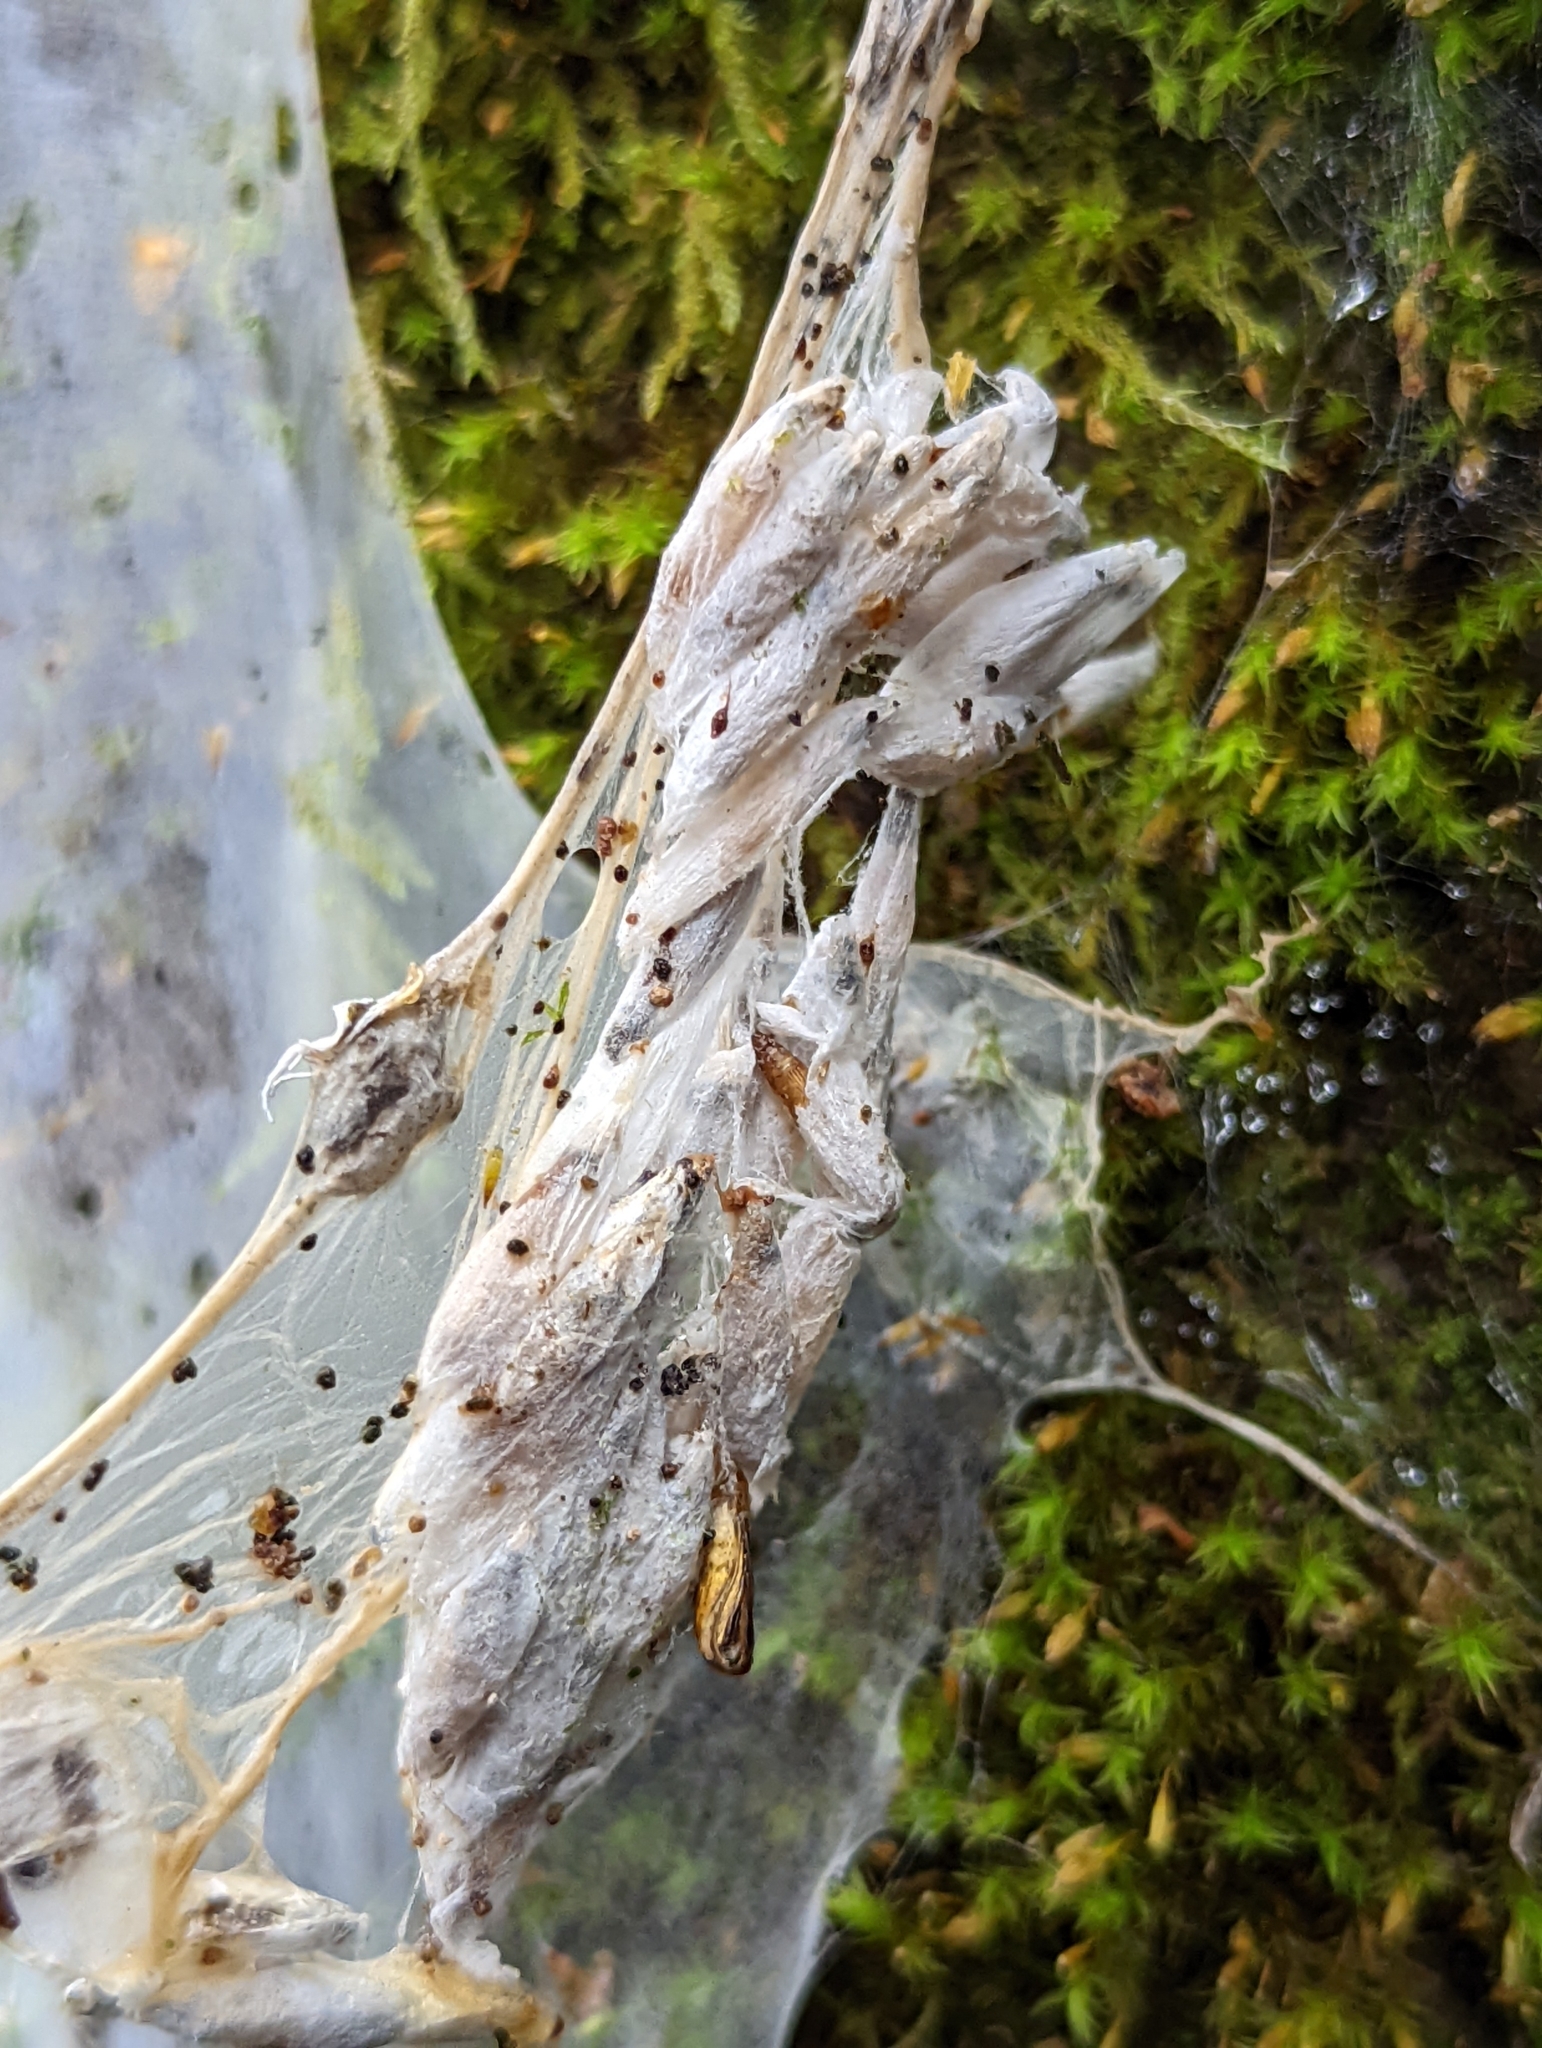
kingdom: Animalia
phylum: Arthropoda
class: Insecta
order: Lepidoptera
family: Yponomeutidae
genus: Yponomeuta
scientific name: Yponomeuta evonymella
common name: Bird-cherry ermine
